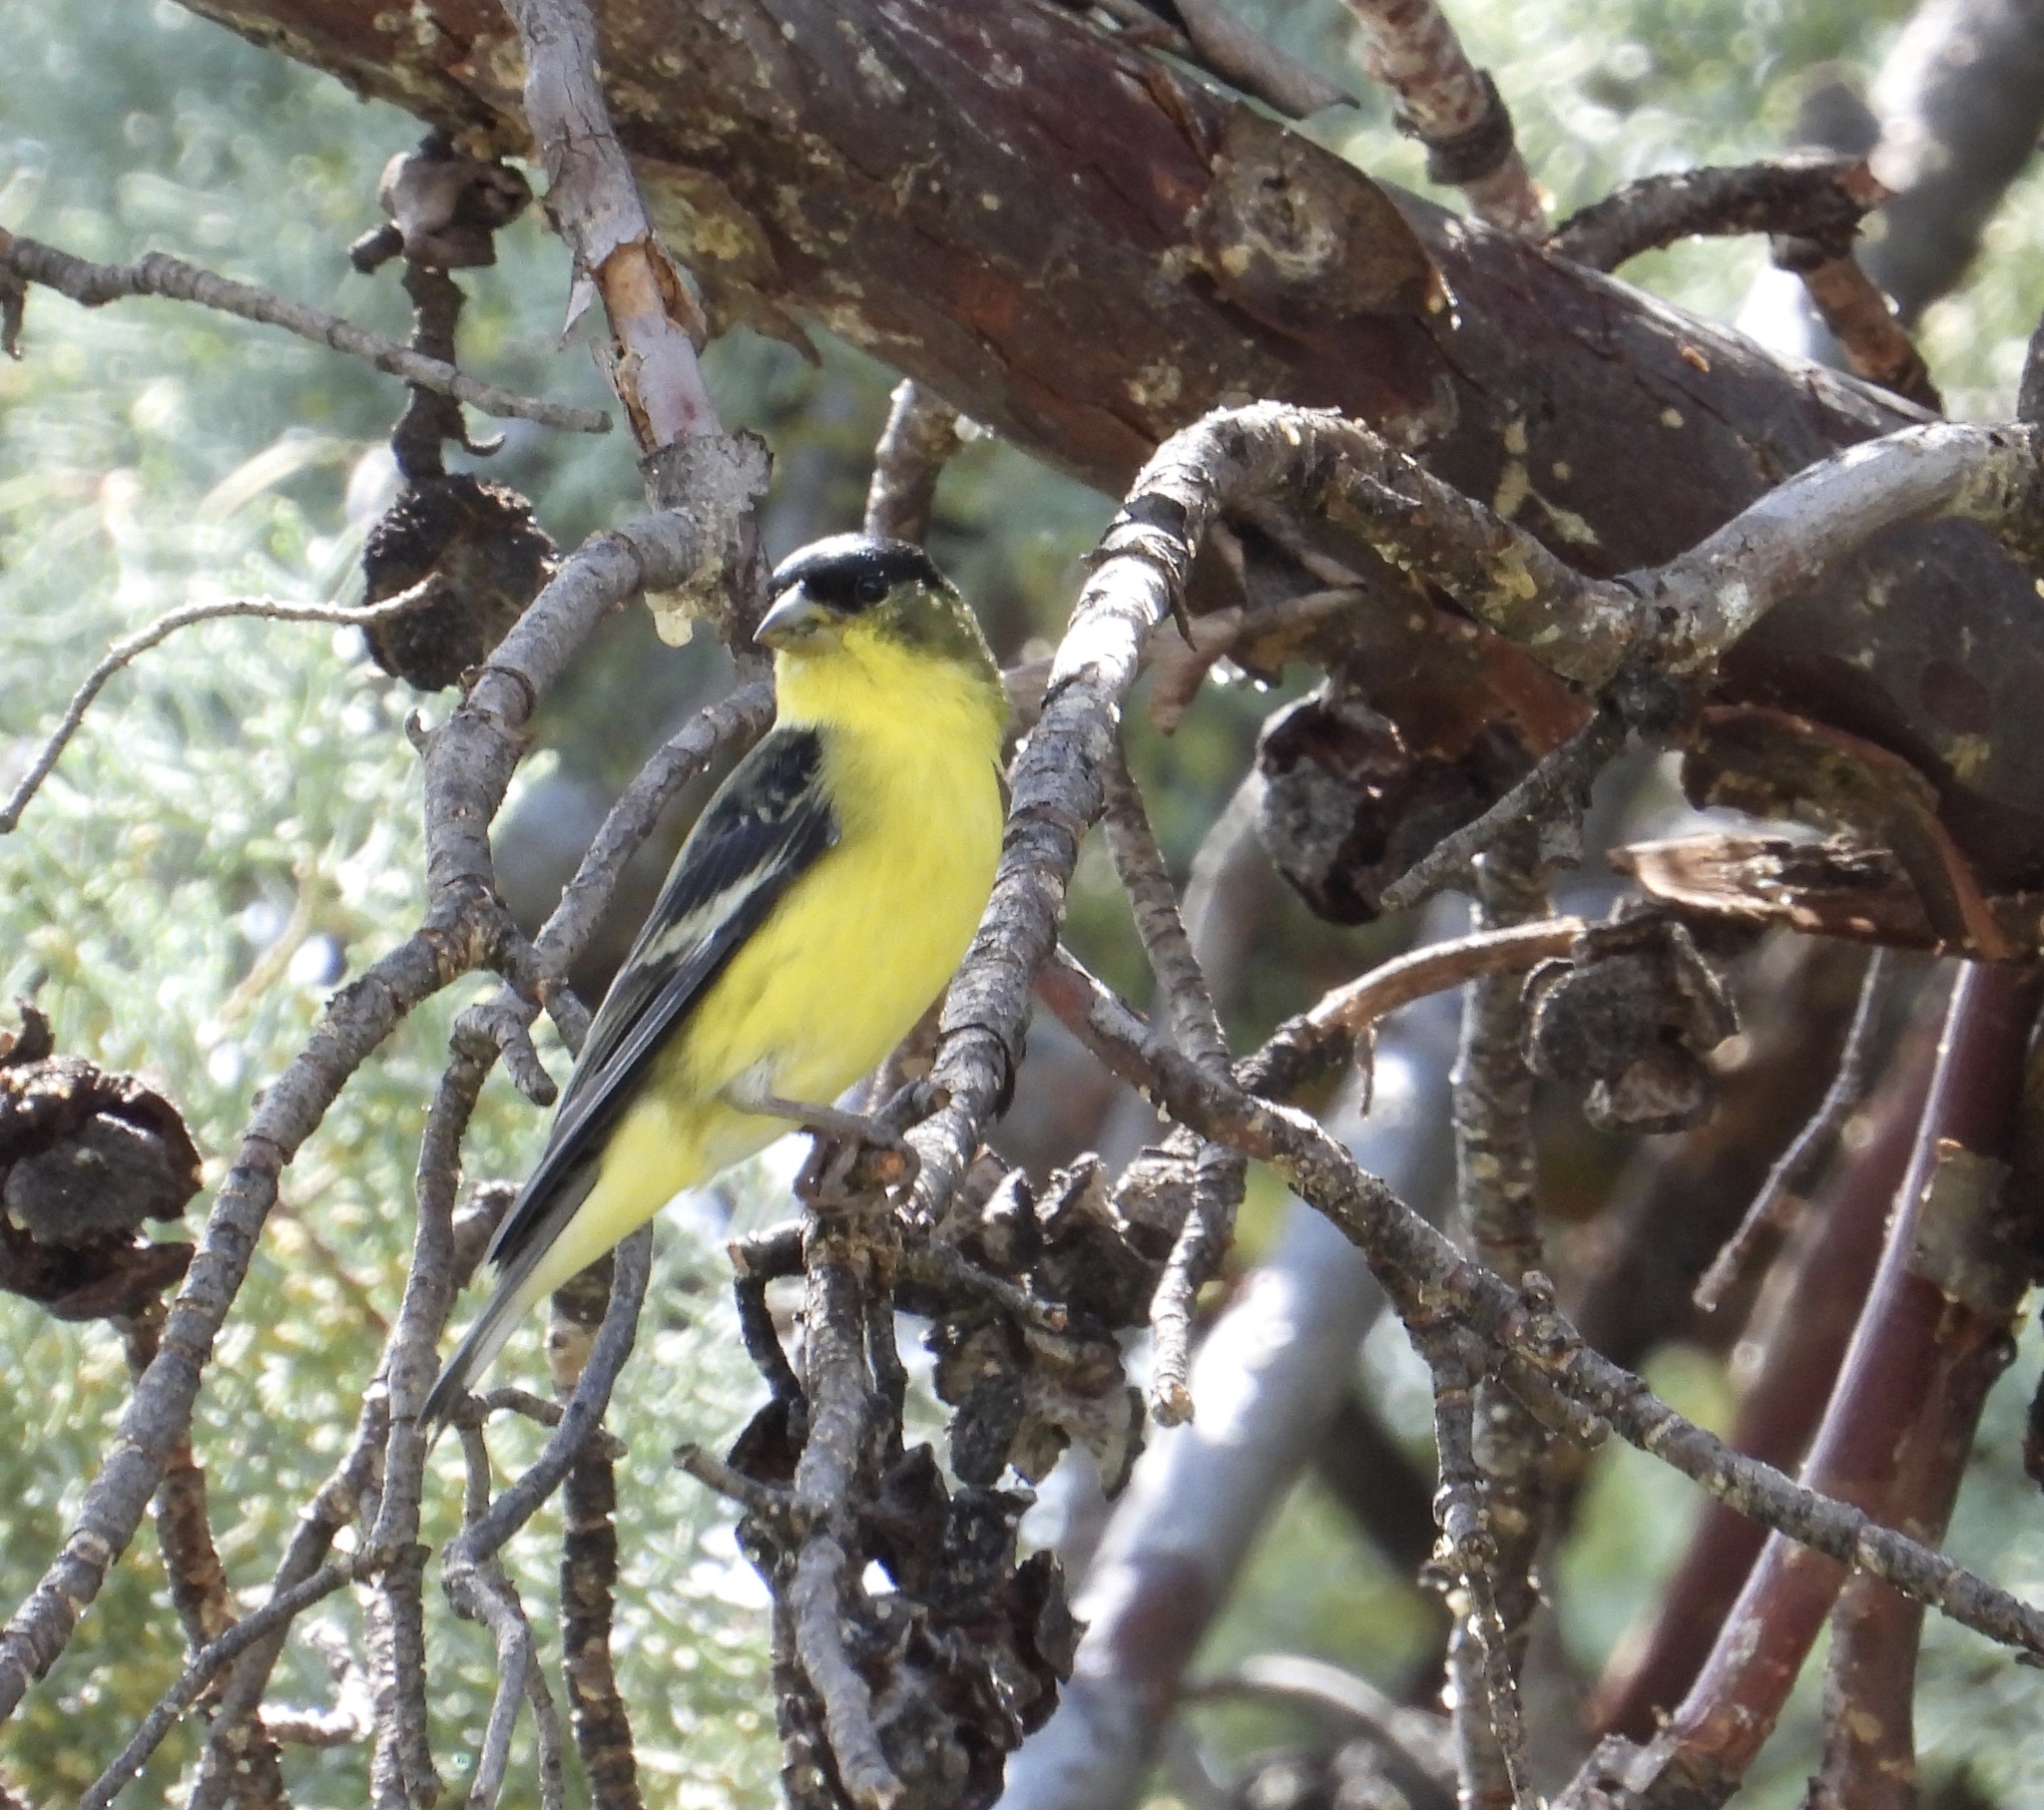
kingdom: Animalia
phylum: Chordata
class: Aves
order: Passeriformes
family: Fringillidae
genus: Spinus
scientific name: Spinus psaltria
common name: Lesser goldfinch
